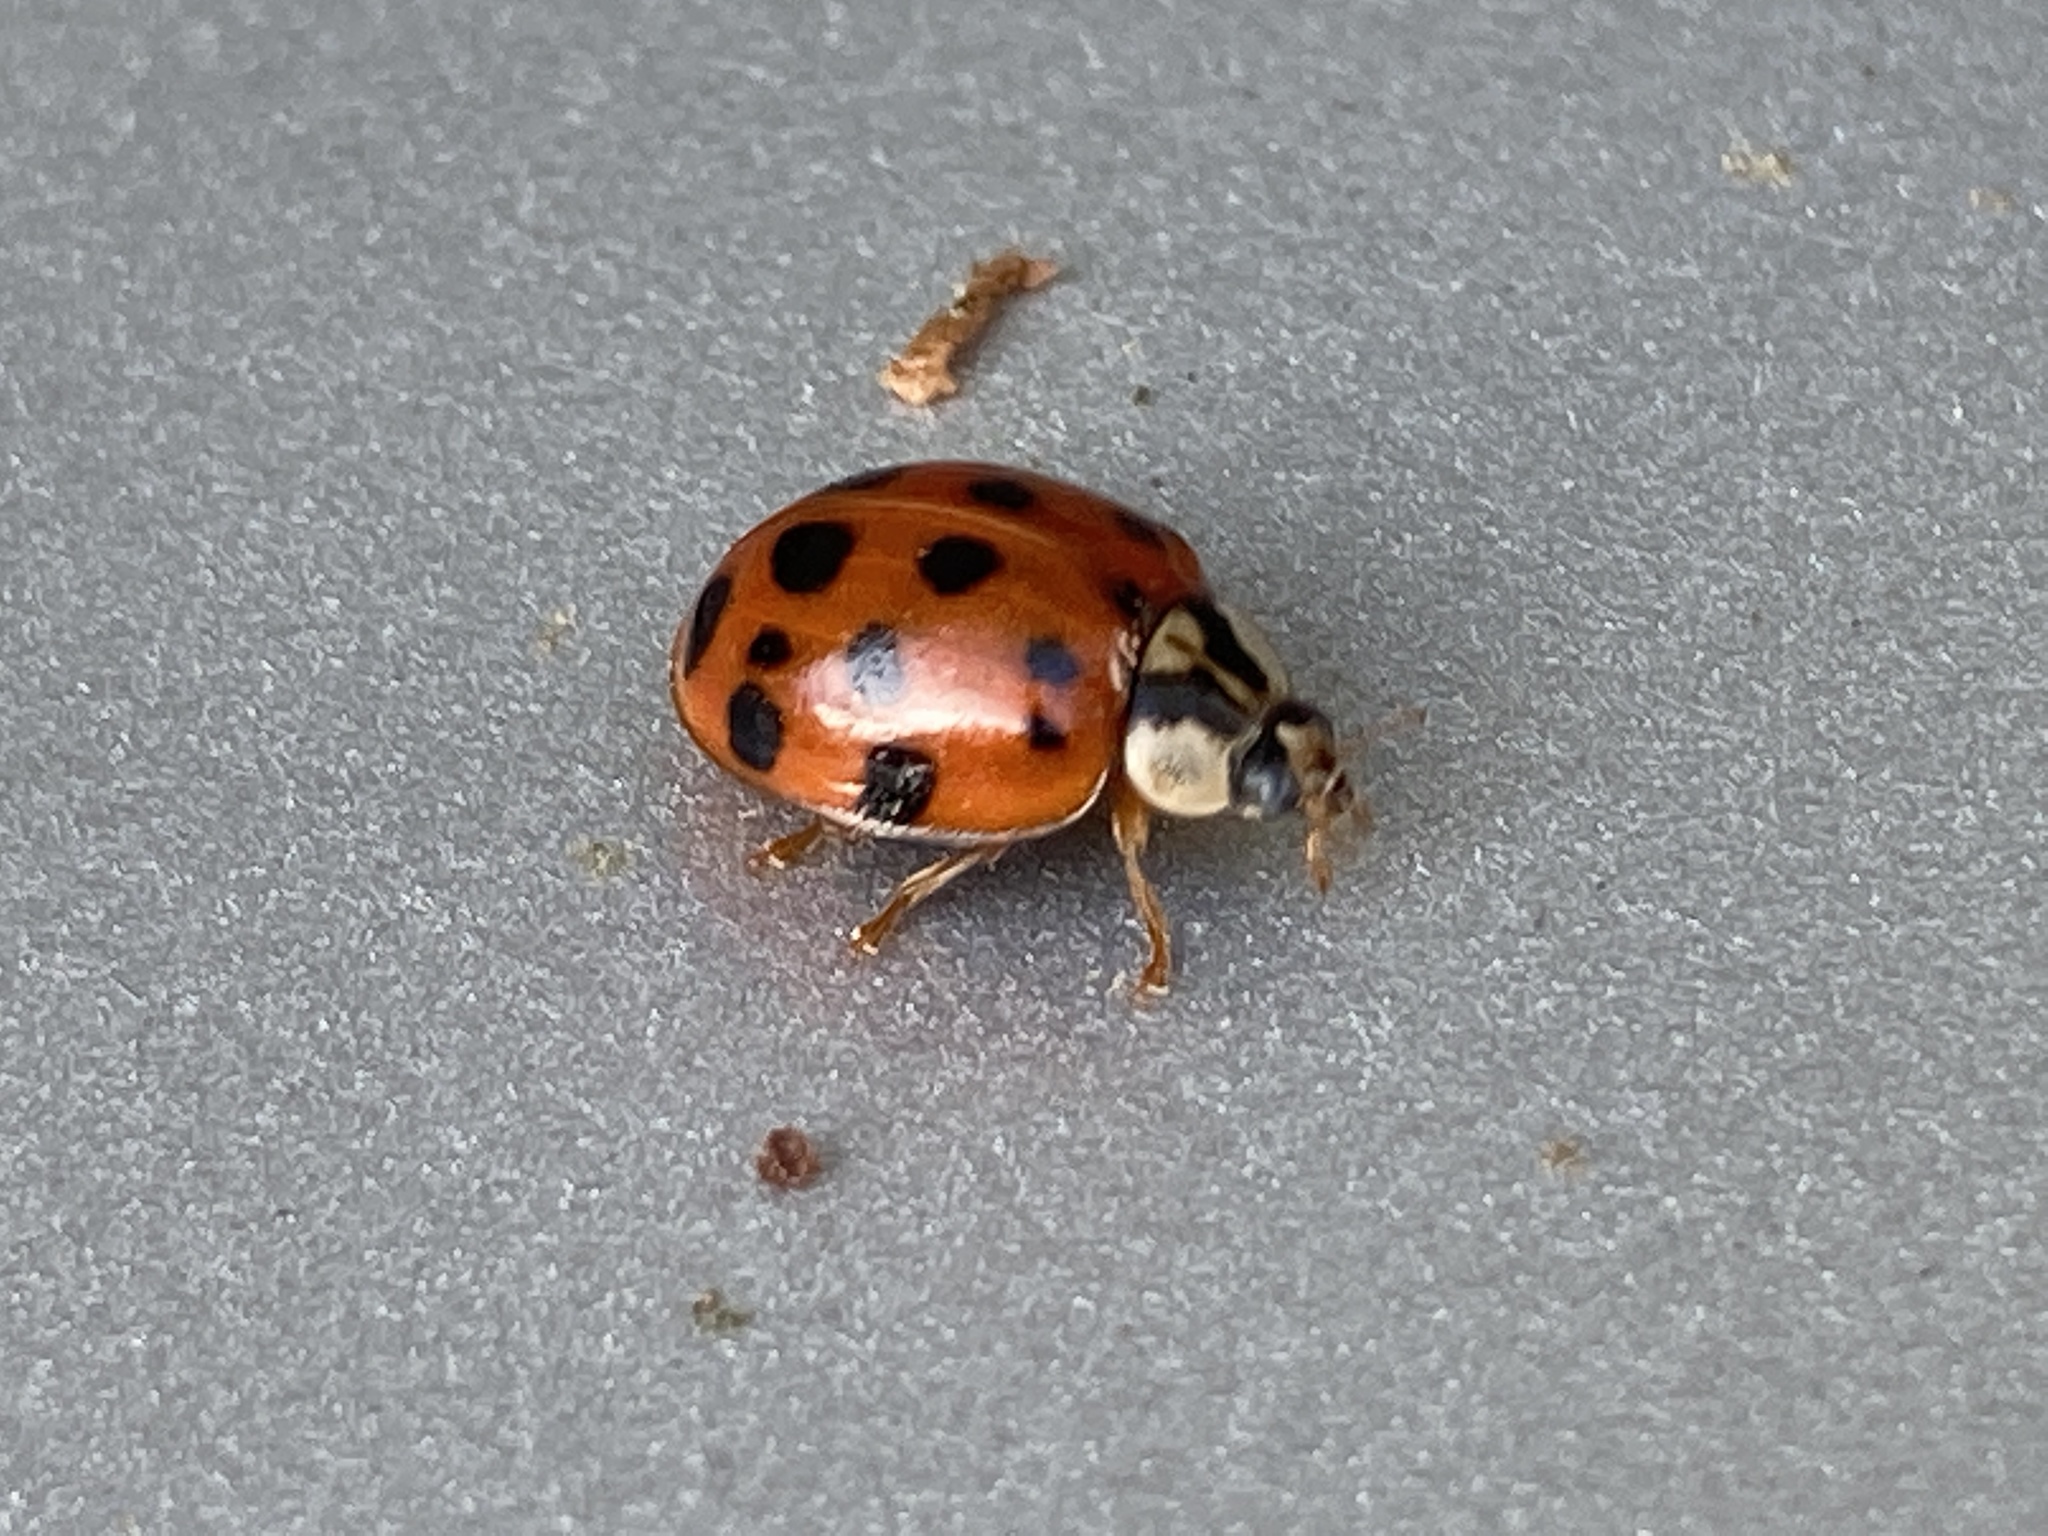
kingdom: Animalia
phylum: Arthropoda
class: Insecta
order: Coleoptera
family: Coccinellidae
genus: Harmonia
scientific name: Harmonia axyridis
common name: Harlequin ladybird
